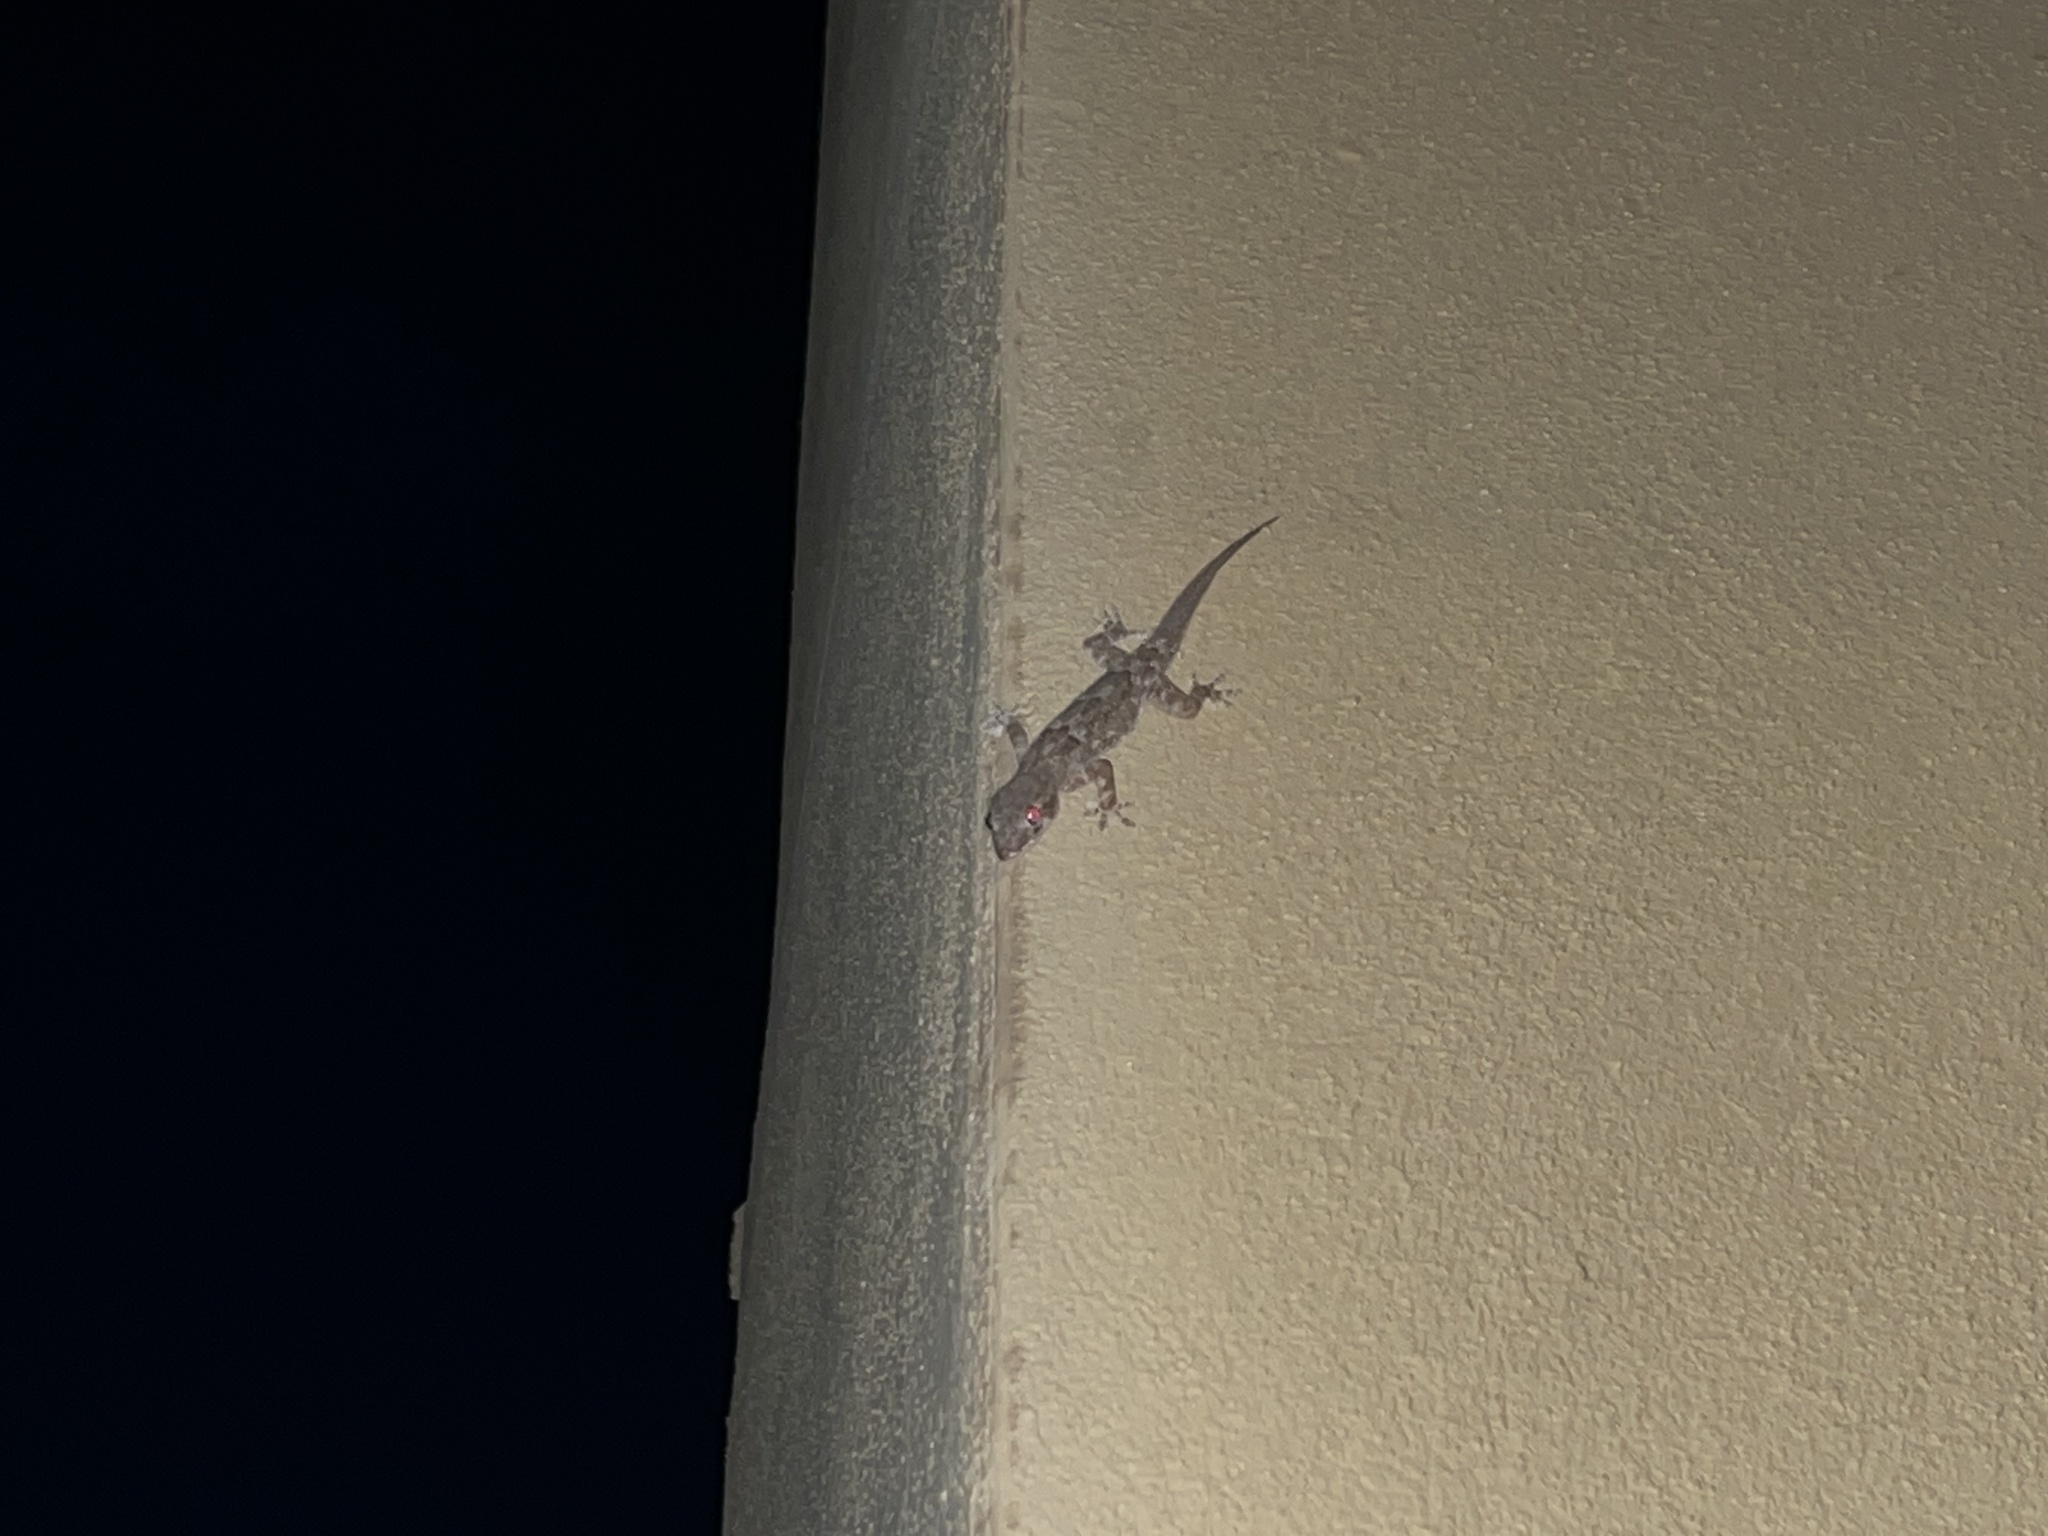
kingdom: Animalia
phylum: Chordata
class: Squamata
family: Gekkonidae
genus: Hemidactylus
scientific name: Hemidactylus mabouia
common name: House gecko
